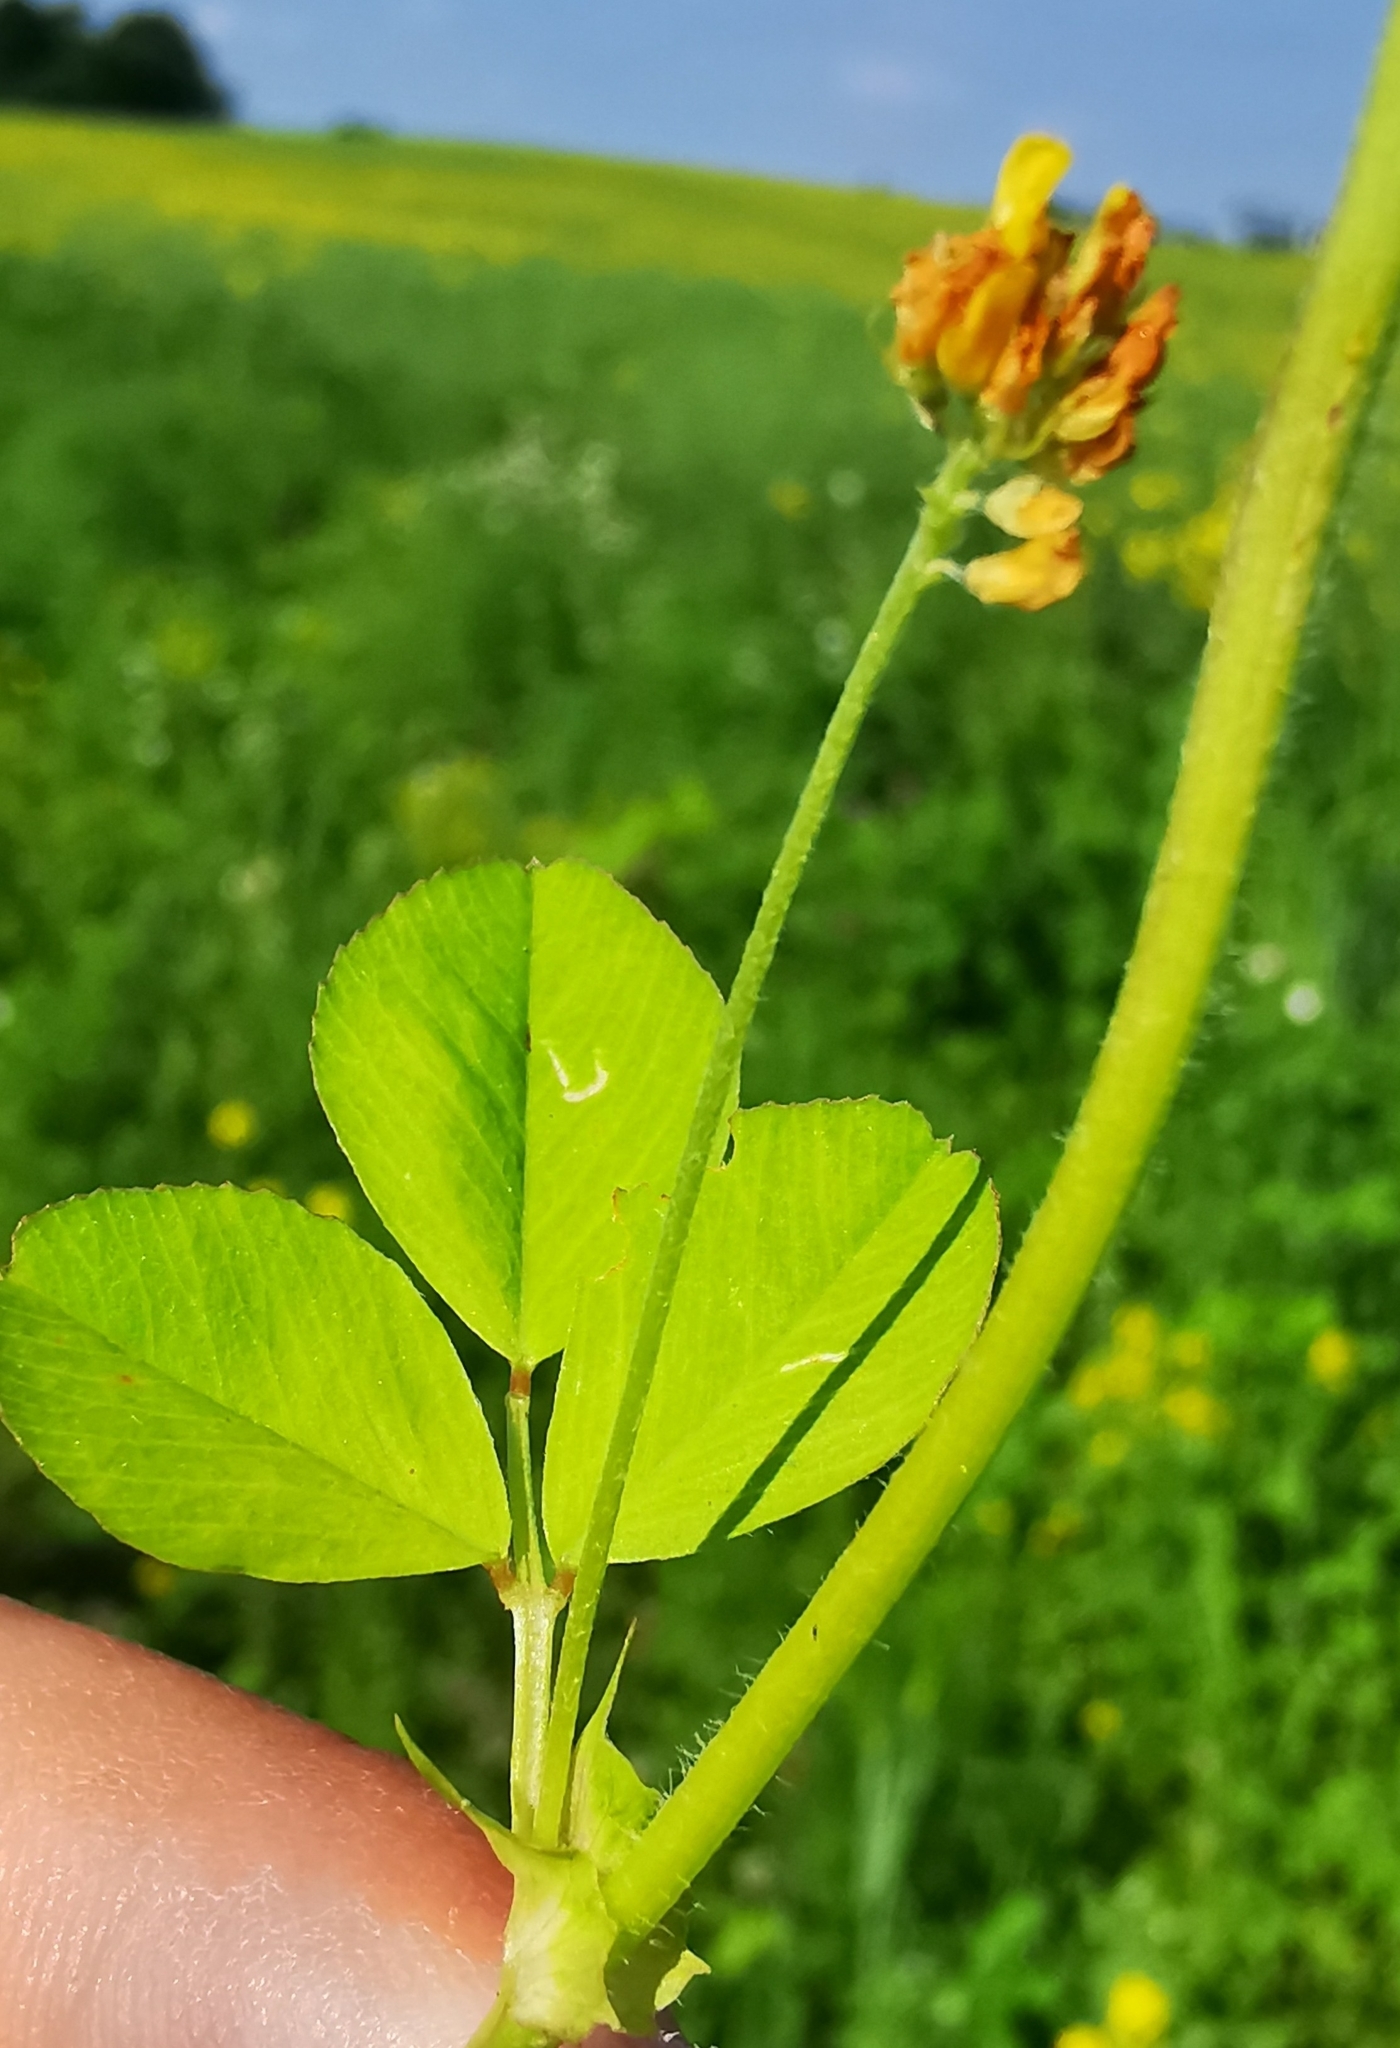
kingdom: Plantae
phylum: Tracheophyta
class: Magnoliopsida
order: Fabales
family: Fabaceae
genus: Medicago
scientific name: Medicago lupulina
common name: Black medick
